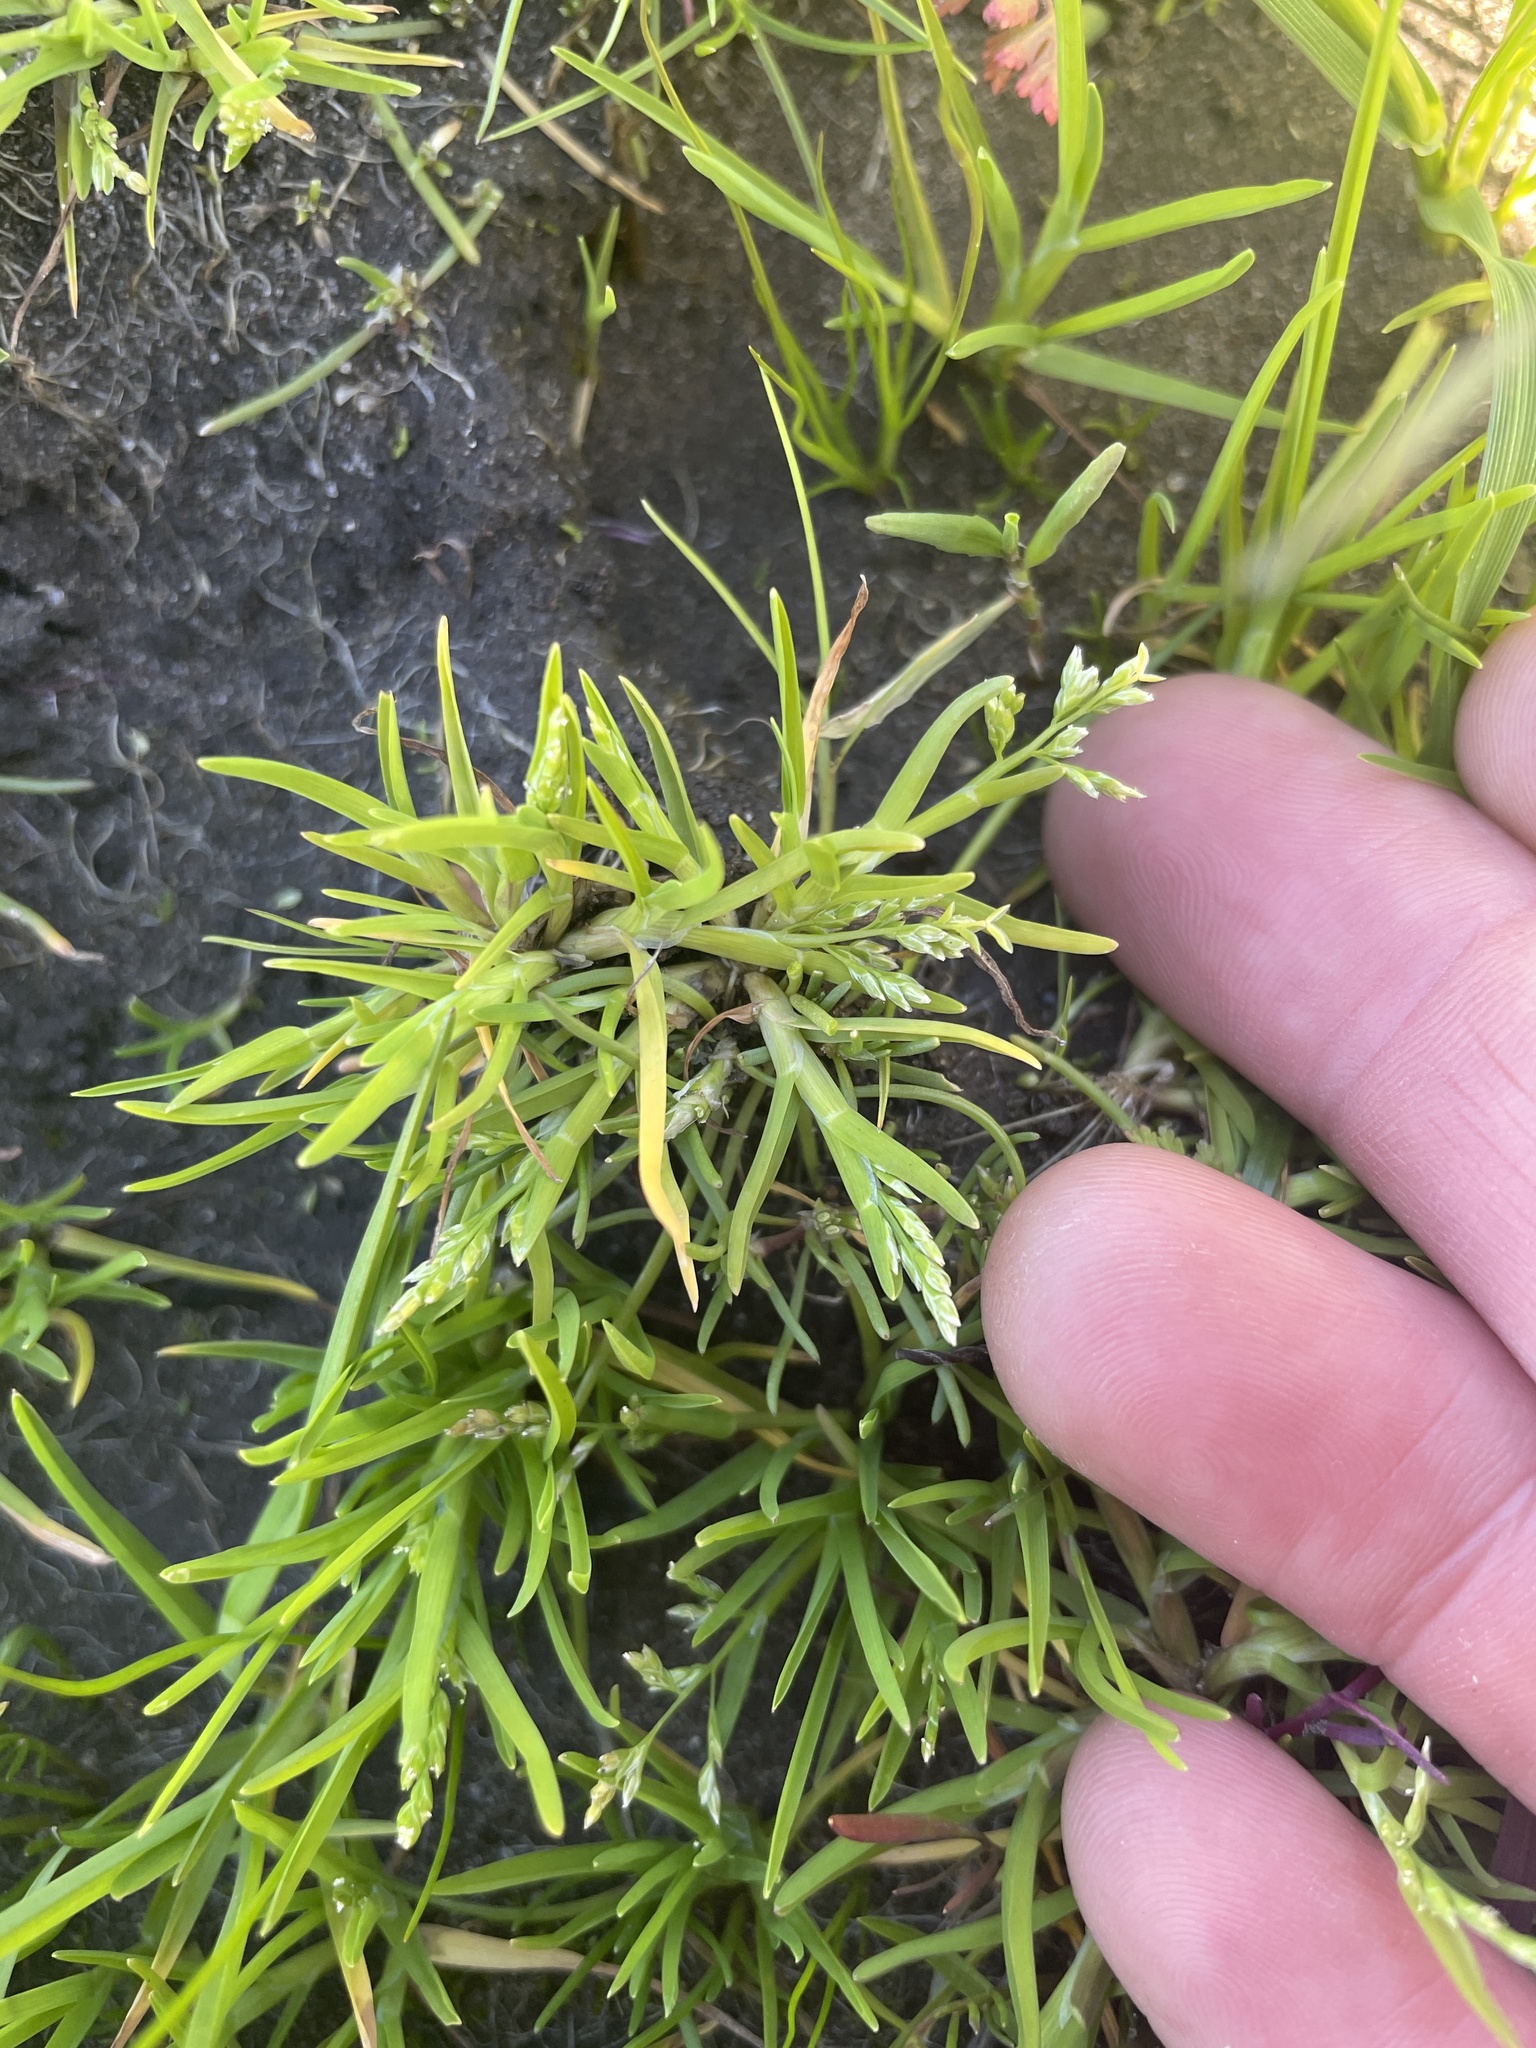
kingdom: Plantae
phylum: Tracheophyta
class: Liliopsida
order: Poales
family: Poaceae
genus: Poa
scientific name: Poa annua
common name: Annual bluegrass
